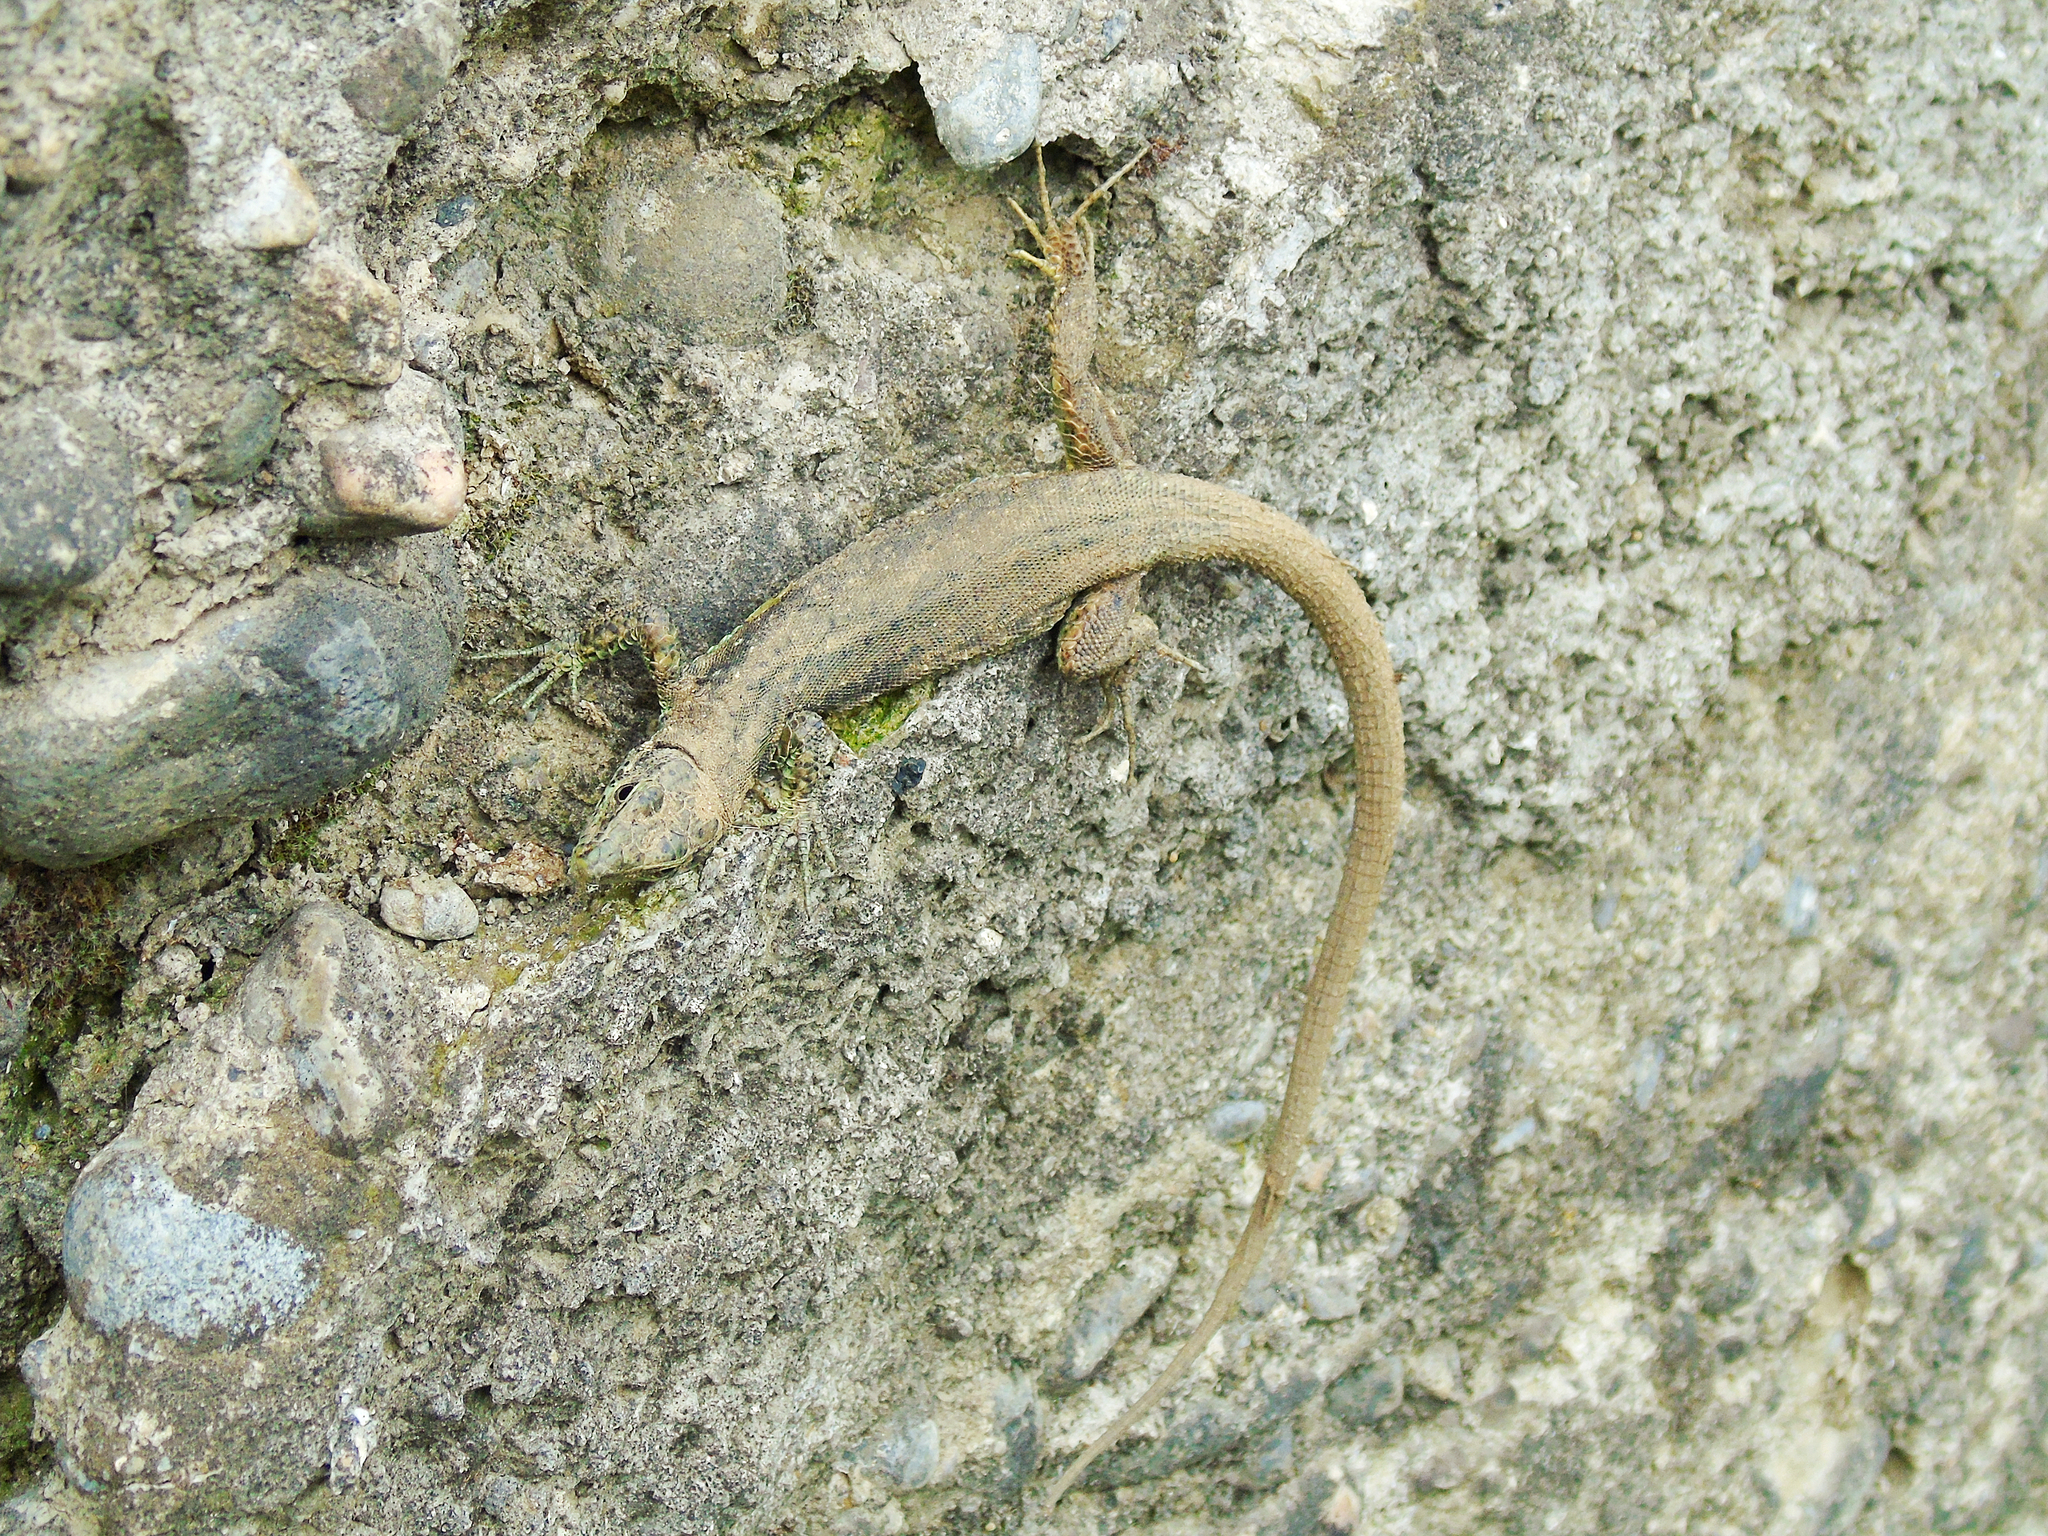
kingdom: Animalia
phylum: Chordata
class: Squamata
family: Lacertidae
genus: Darevskia
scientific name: Darevskia rudis
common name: Spiny-tailed lizard
